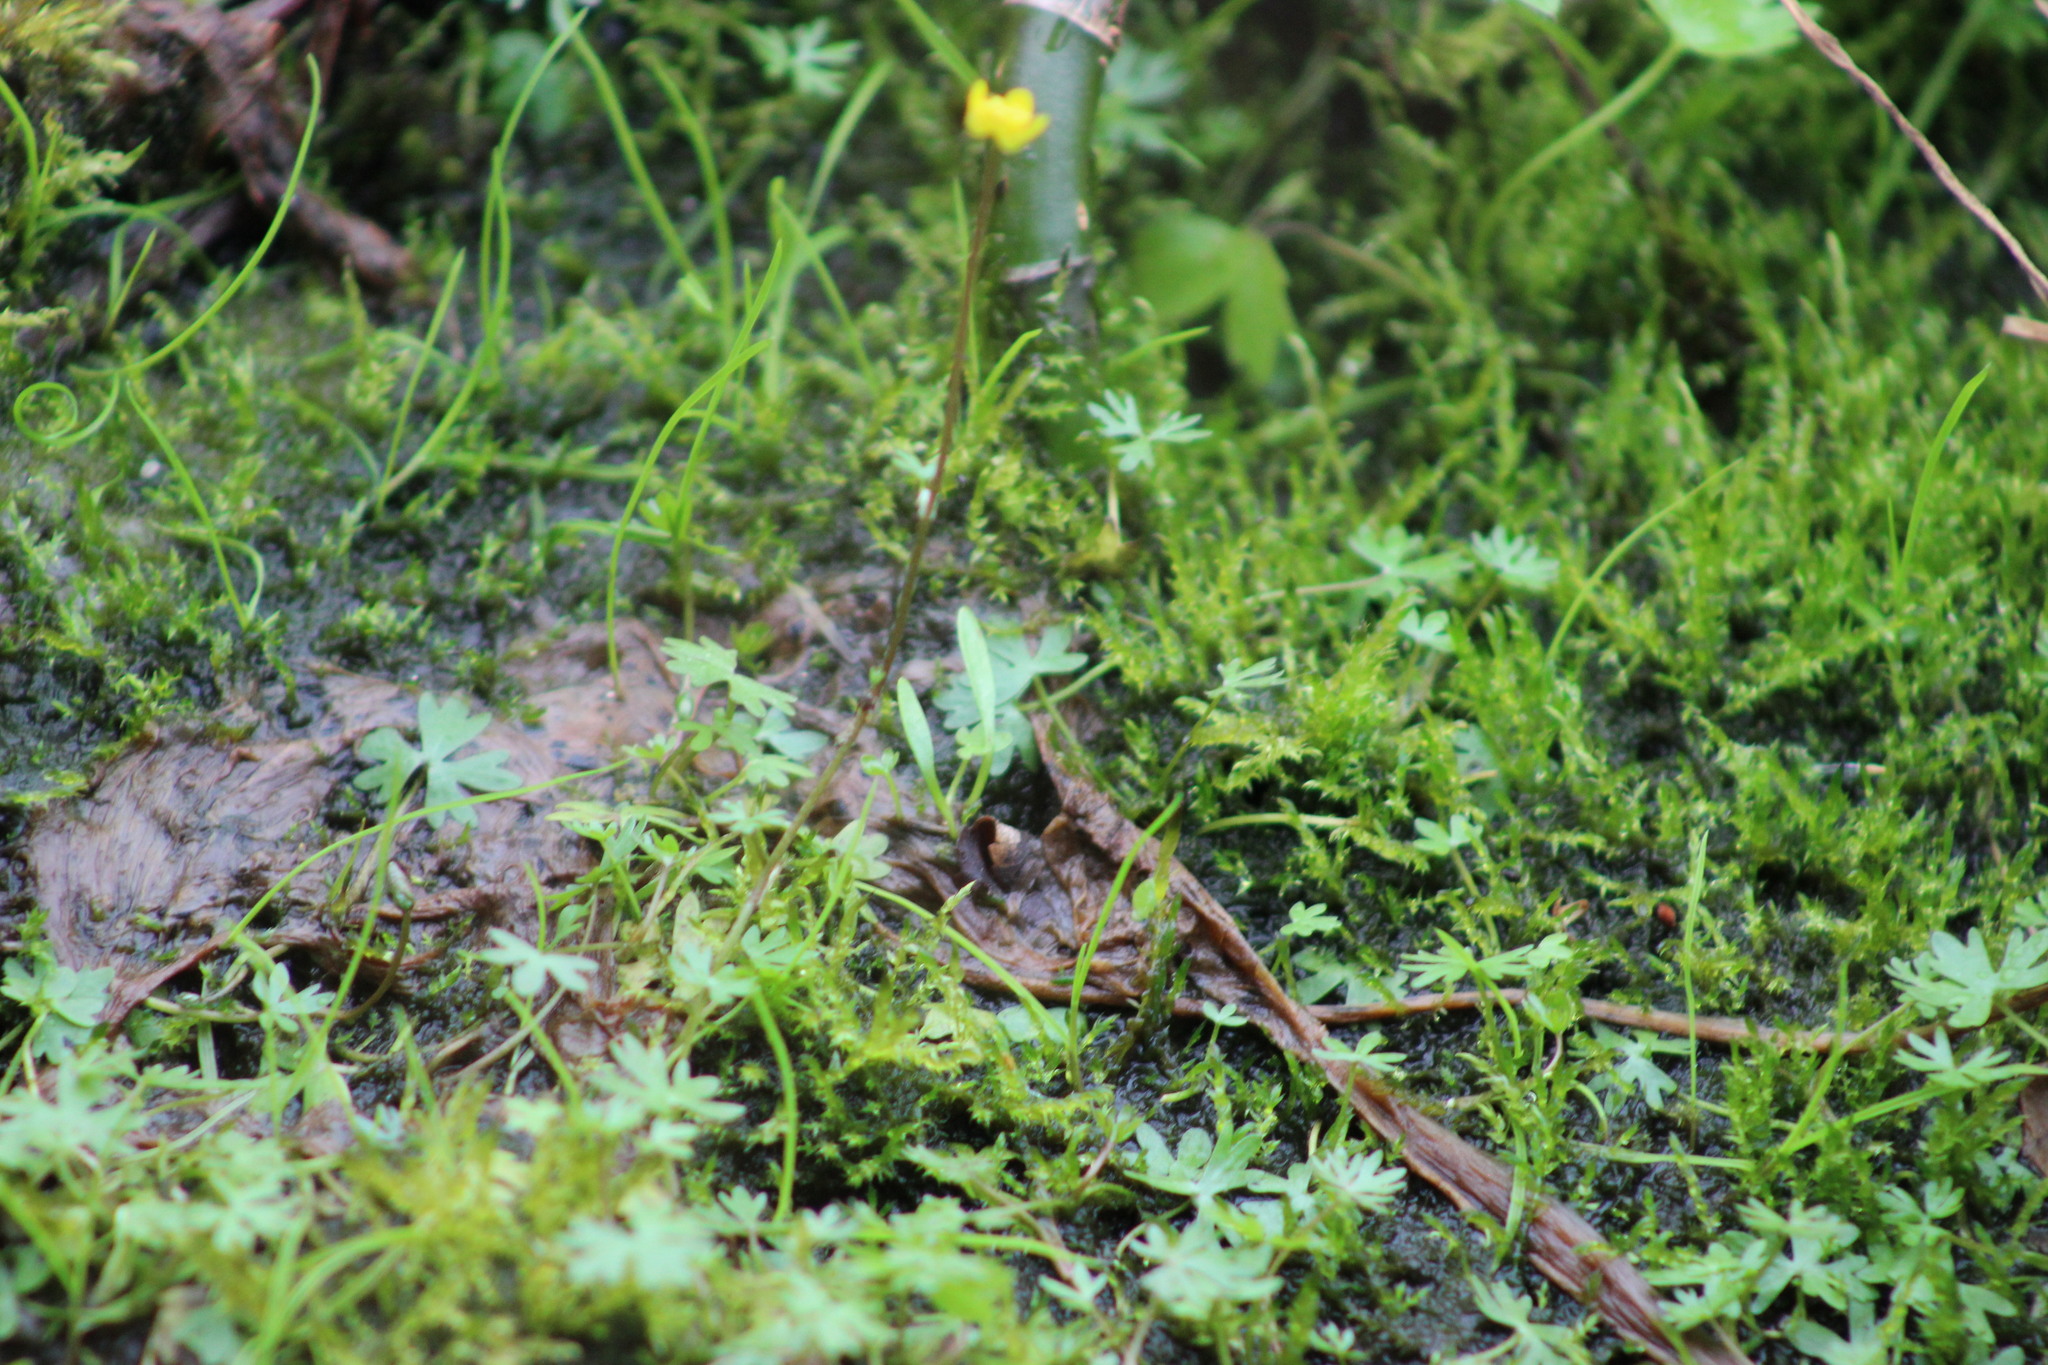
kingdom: Plantae
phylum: Tracheophyta
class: Magnoliopsida
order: Ranunculales
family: Ranunculaceae
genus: Ranunculus
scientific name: Ranunculus gmelinii
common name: Gmelin's buttercup
